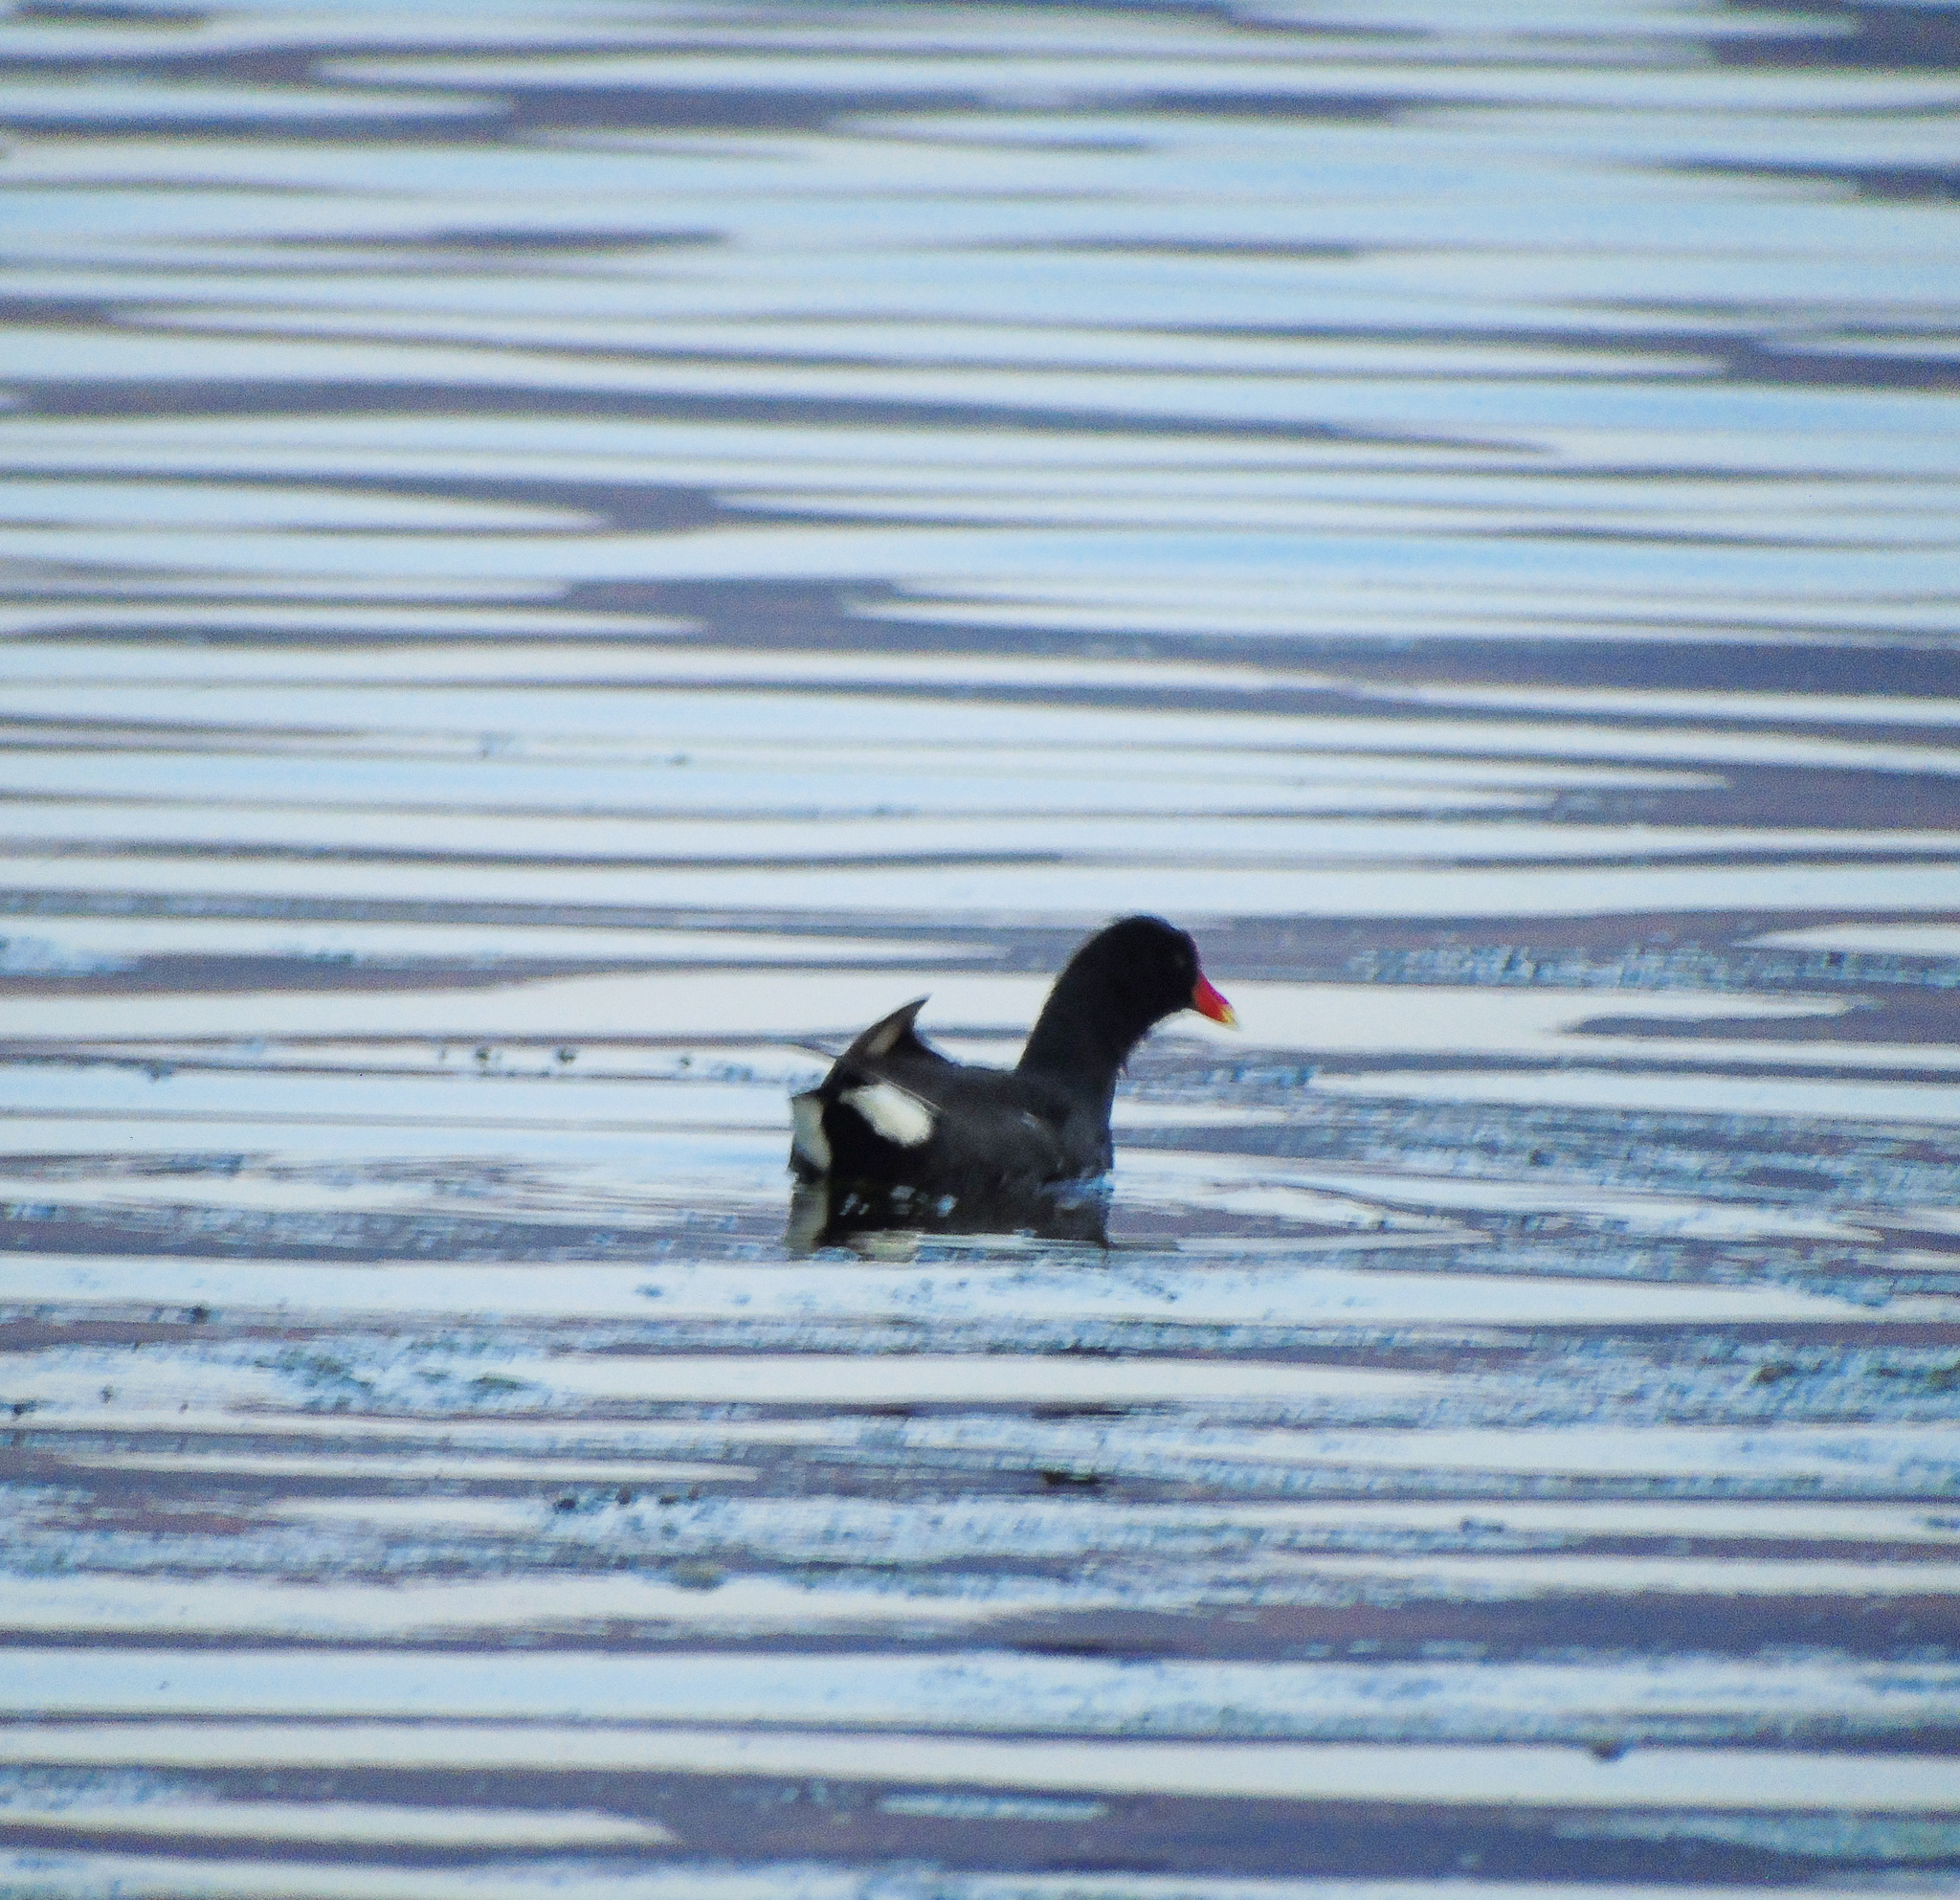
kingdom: Animalia
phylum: Chordata
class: Aves
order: Gruiformes
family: Rallidae
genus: Gallinula
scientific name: Gallinula chloropus
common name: Common moorhen
